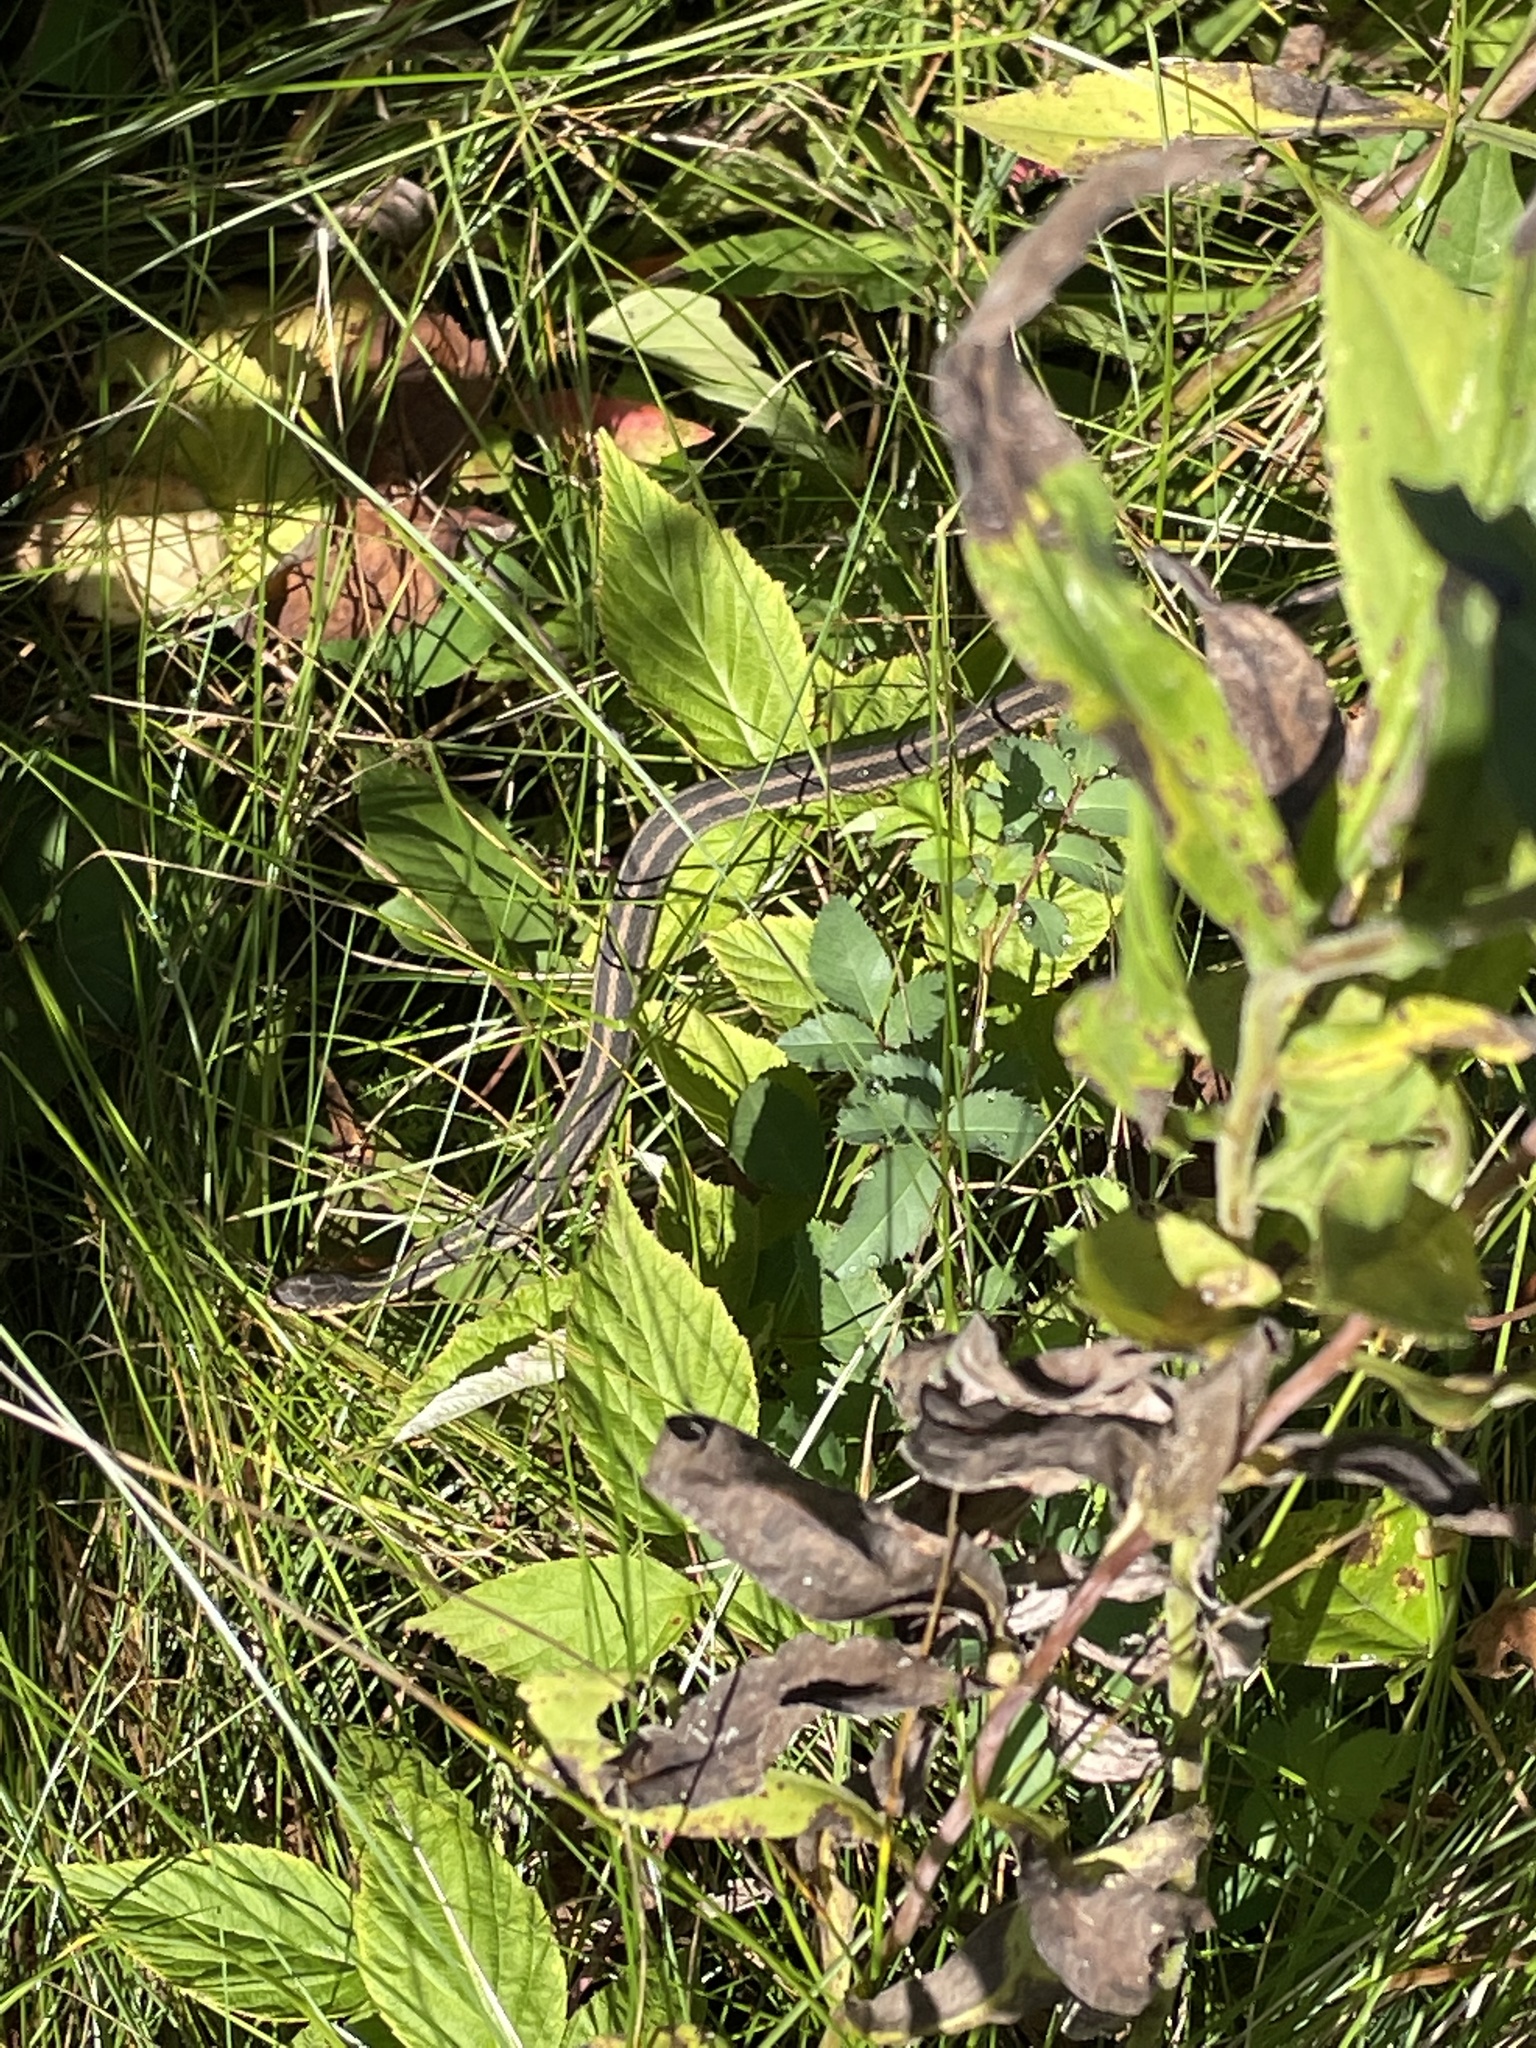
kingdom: Animalia
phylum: Chordata
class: Squamata
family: Colubridae
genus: Thamnophis
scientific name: Thamnophis sirtalis
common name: Common garter snake
